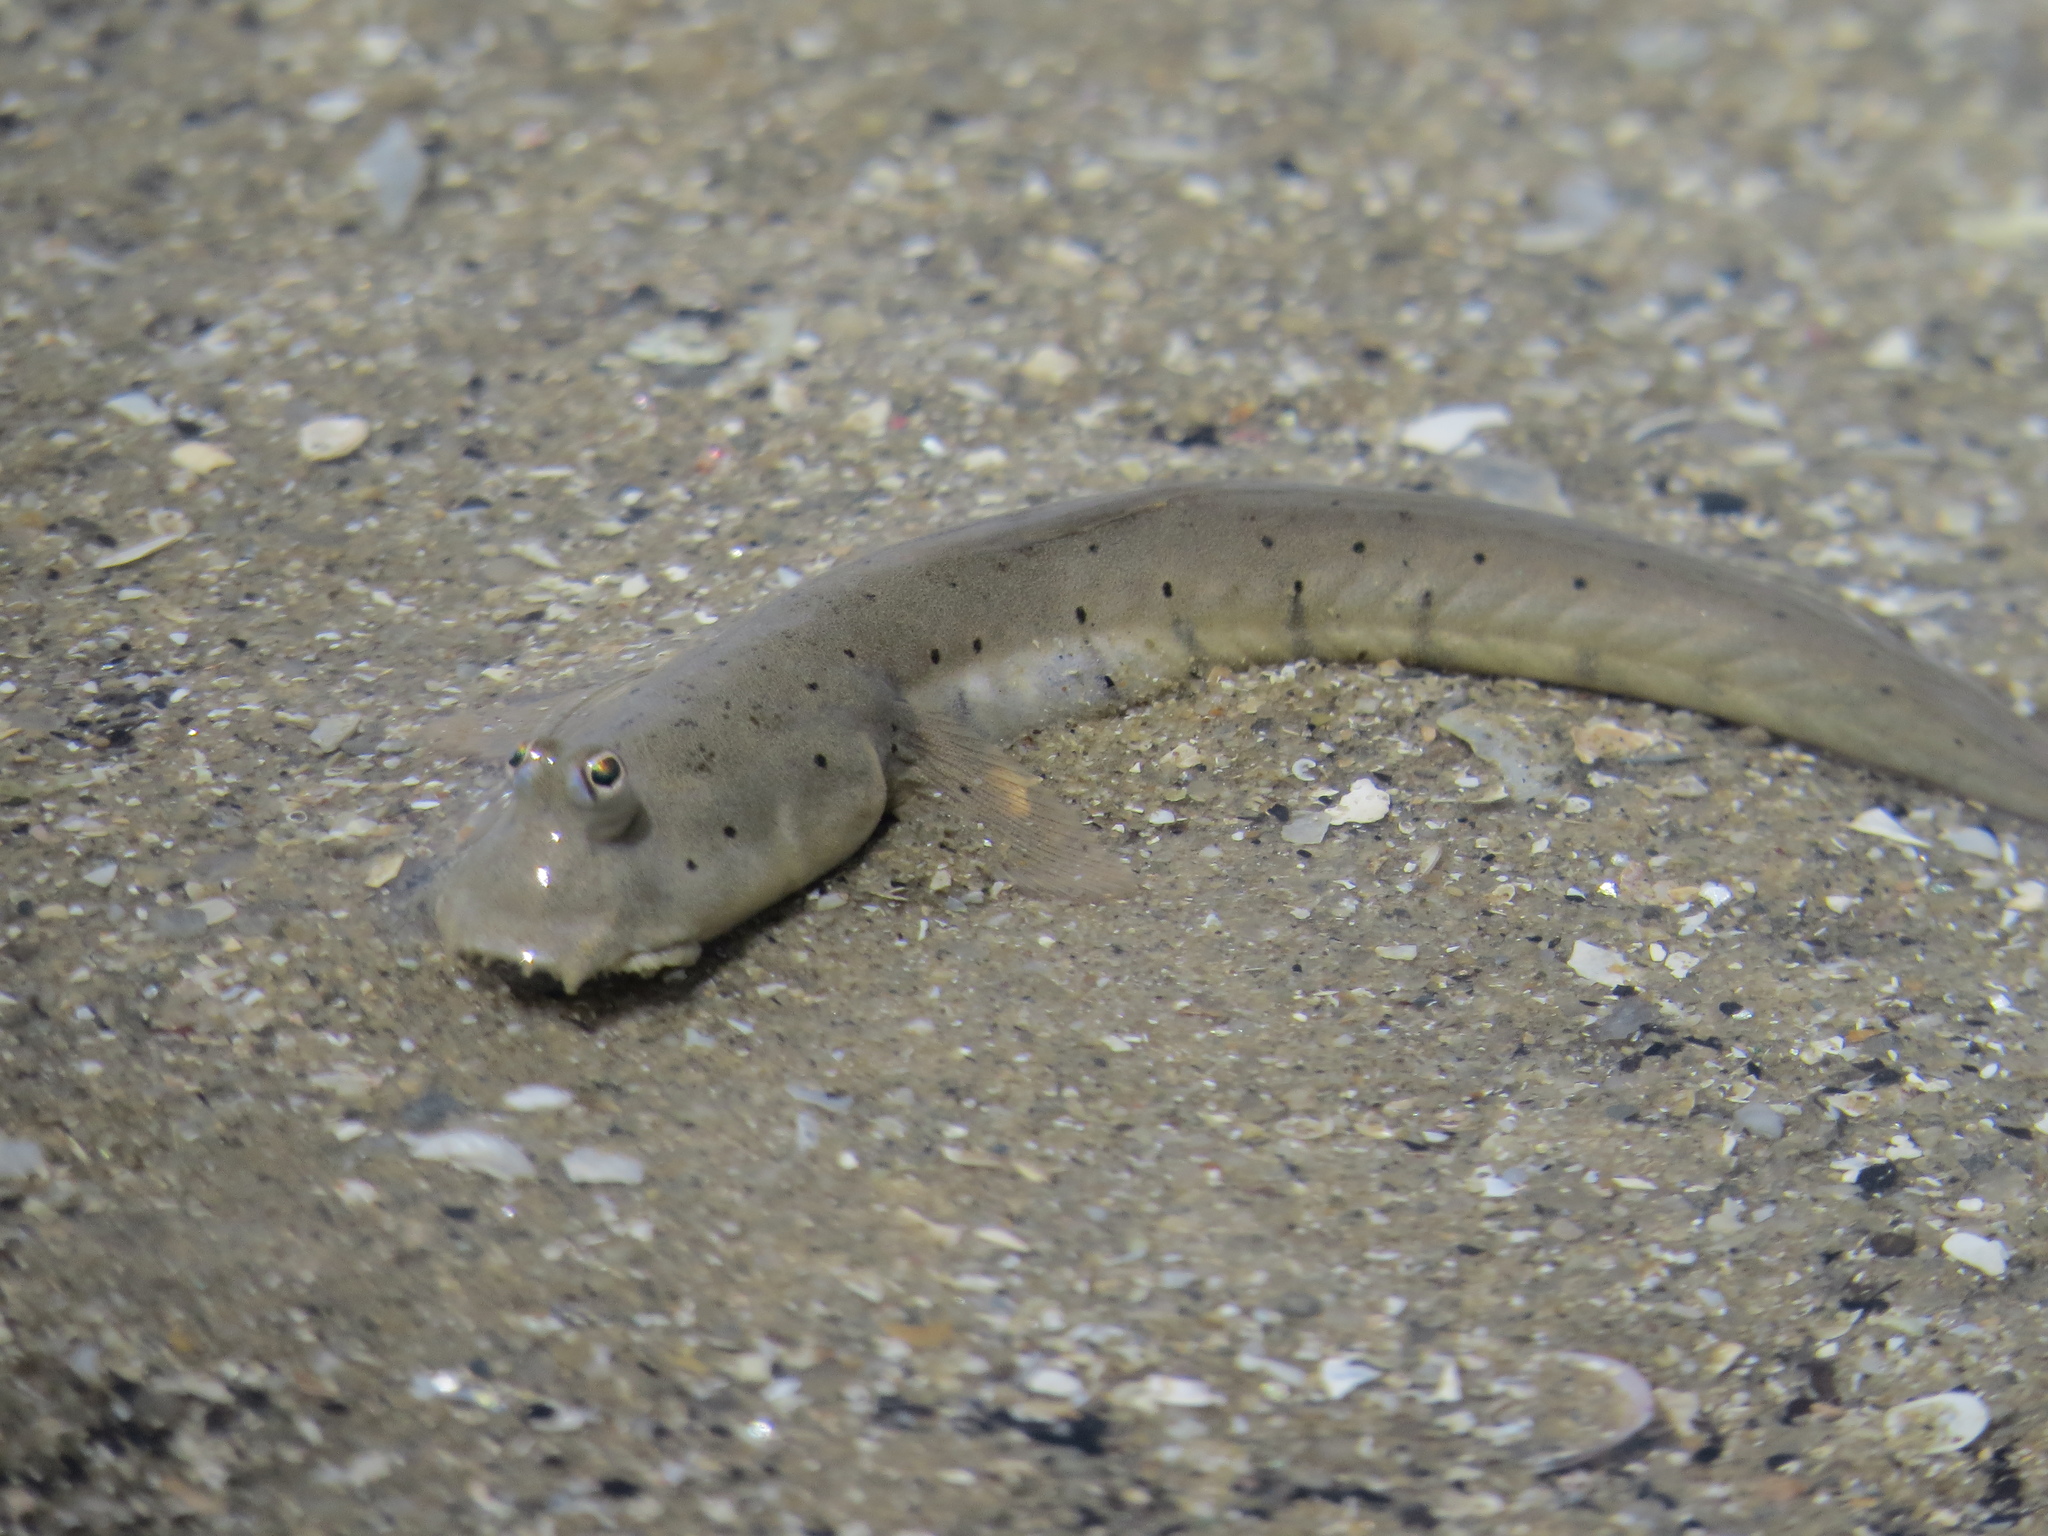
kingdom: Animalia
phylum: Chordata
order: Perciformes
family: Gobiidae
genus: Scartelaos
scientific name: Scartelaos histophorus
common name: Walking goby
